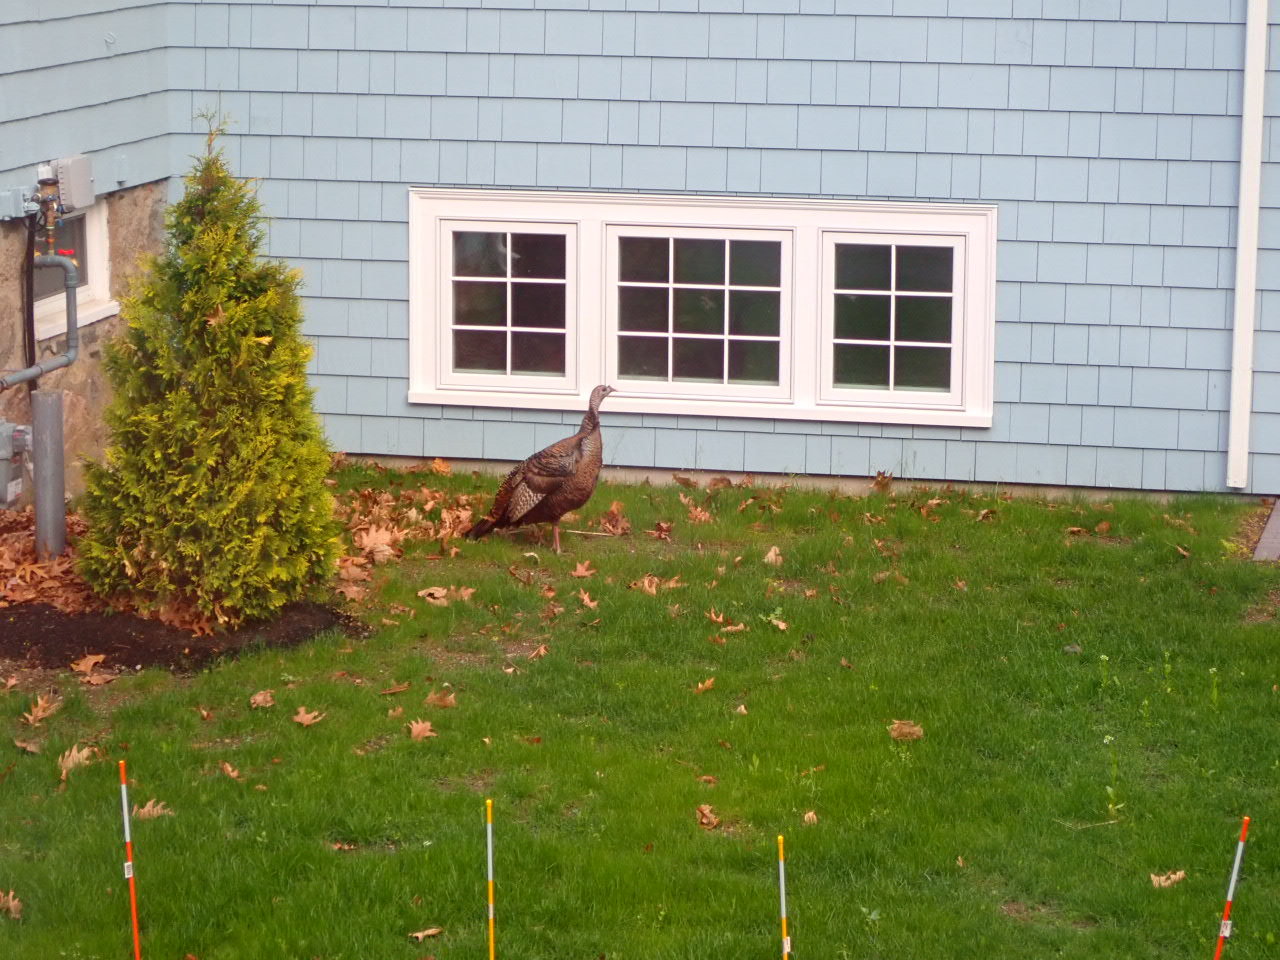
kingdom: Animalia
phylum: Chordata
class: Aves
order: Galliformes
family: Phasianidae
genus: Meleagris
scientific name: Meleagris gallopavo
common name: Wild turkey
